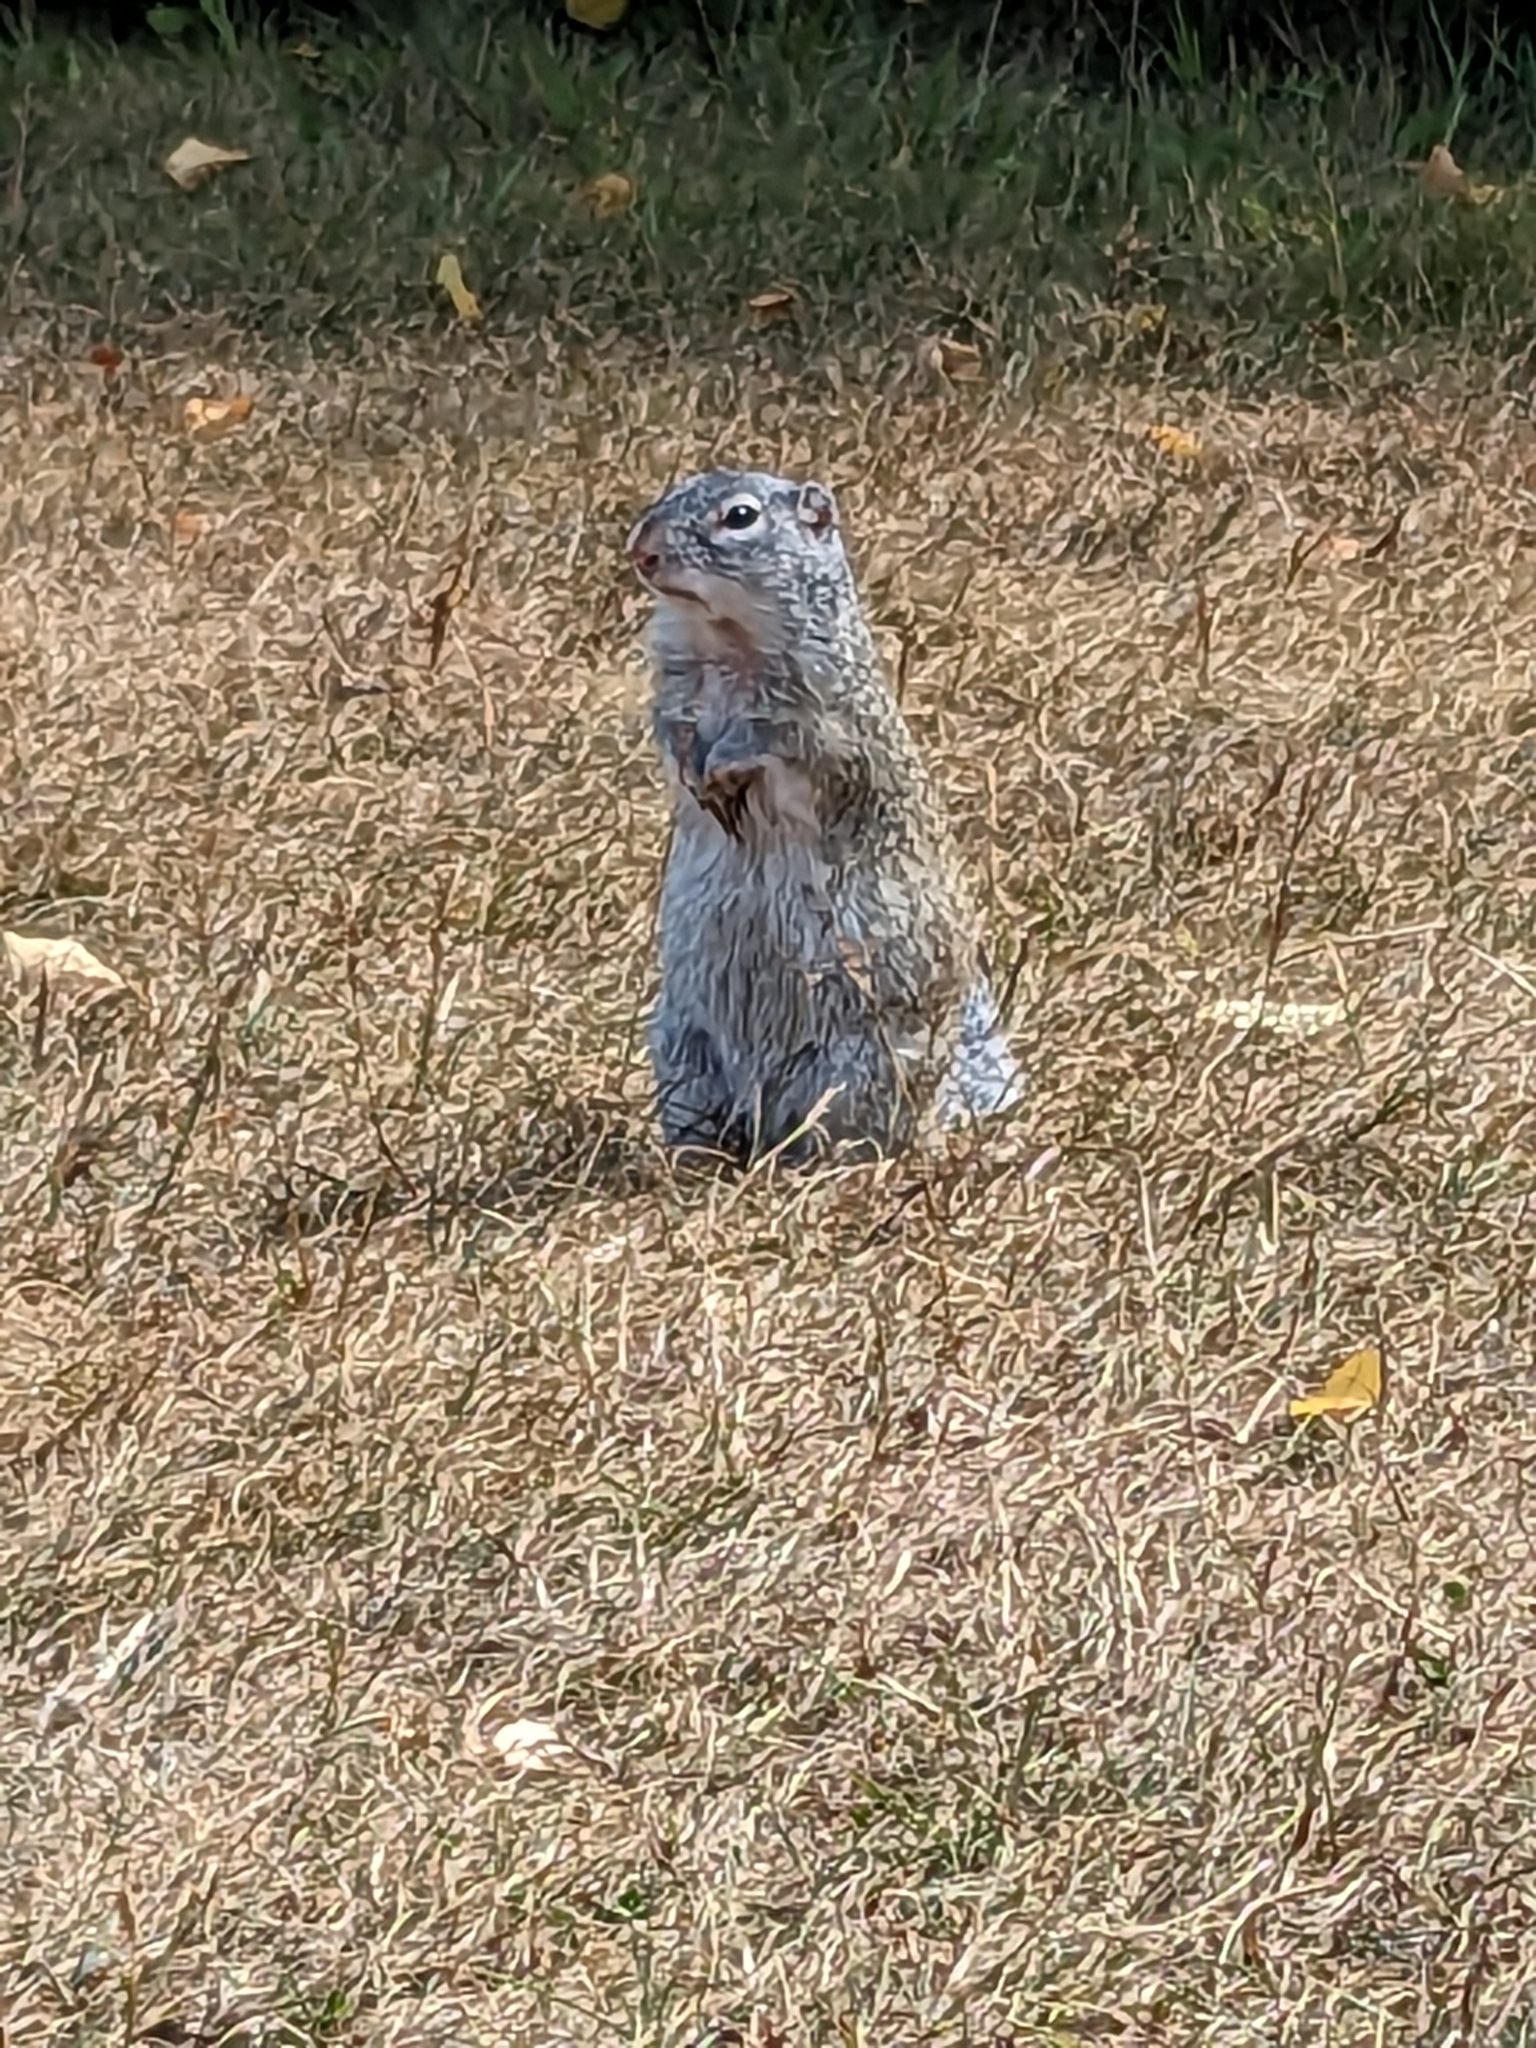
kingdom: Animalia
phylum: Chordata
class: Mammalia
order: Rodentia
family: Sciuridae
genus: Poliocitellus
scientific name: Poliocitellus franklinii
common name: Franklin's ground squirrel
